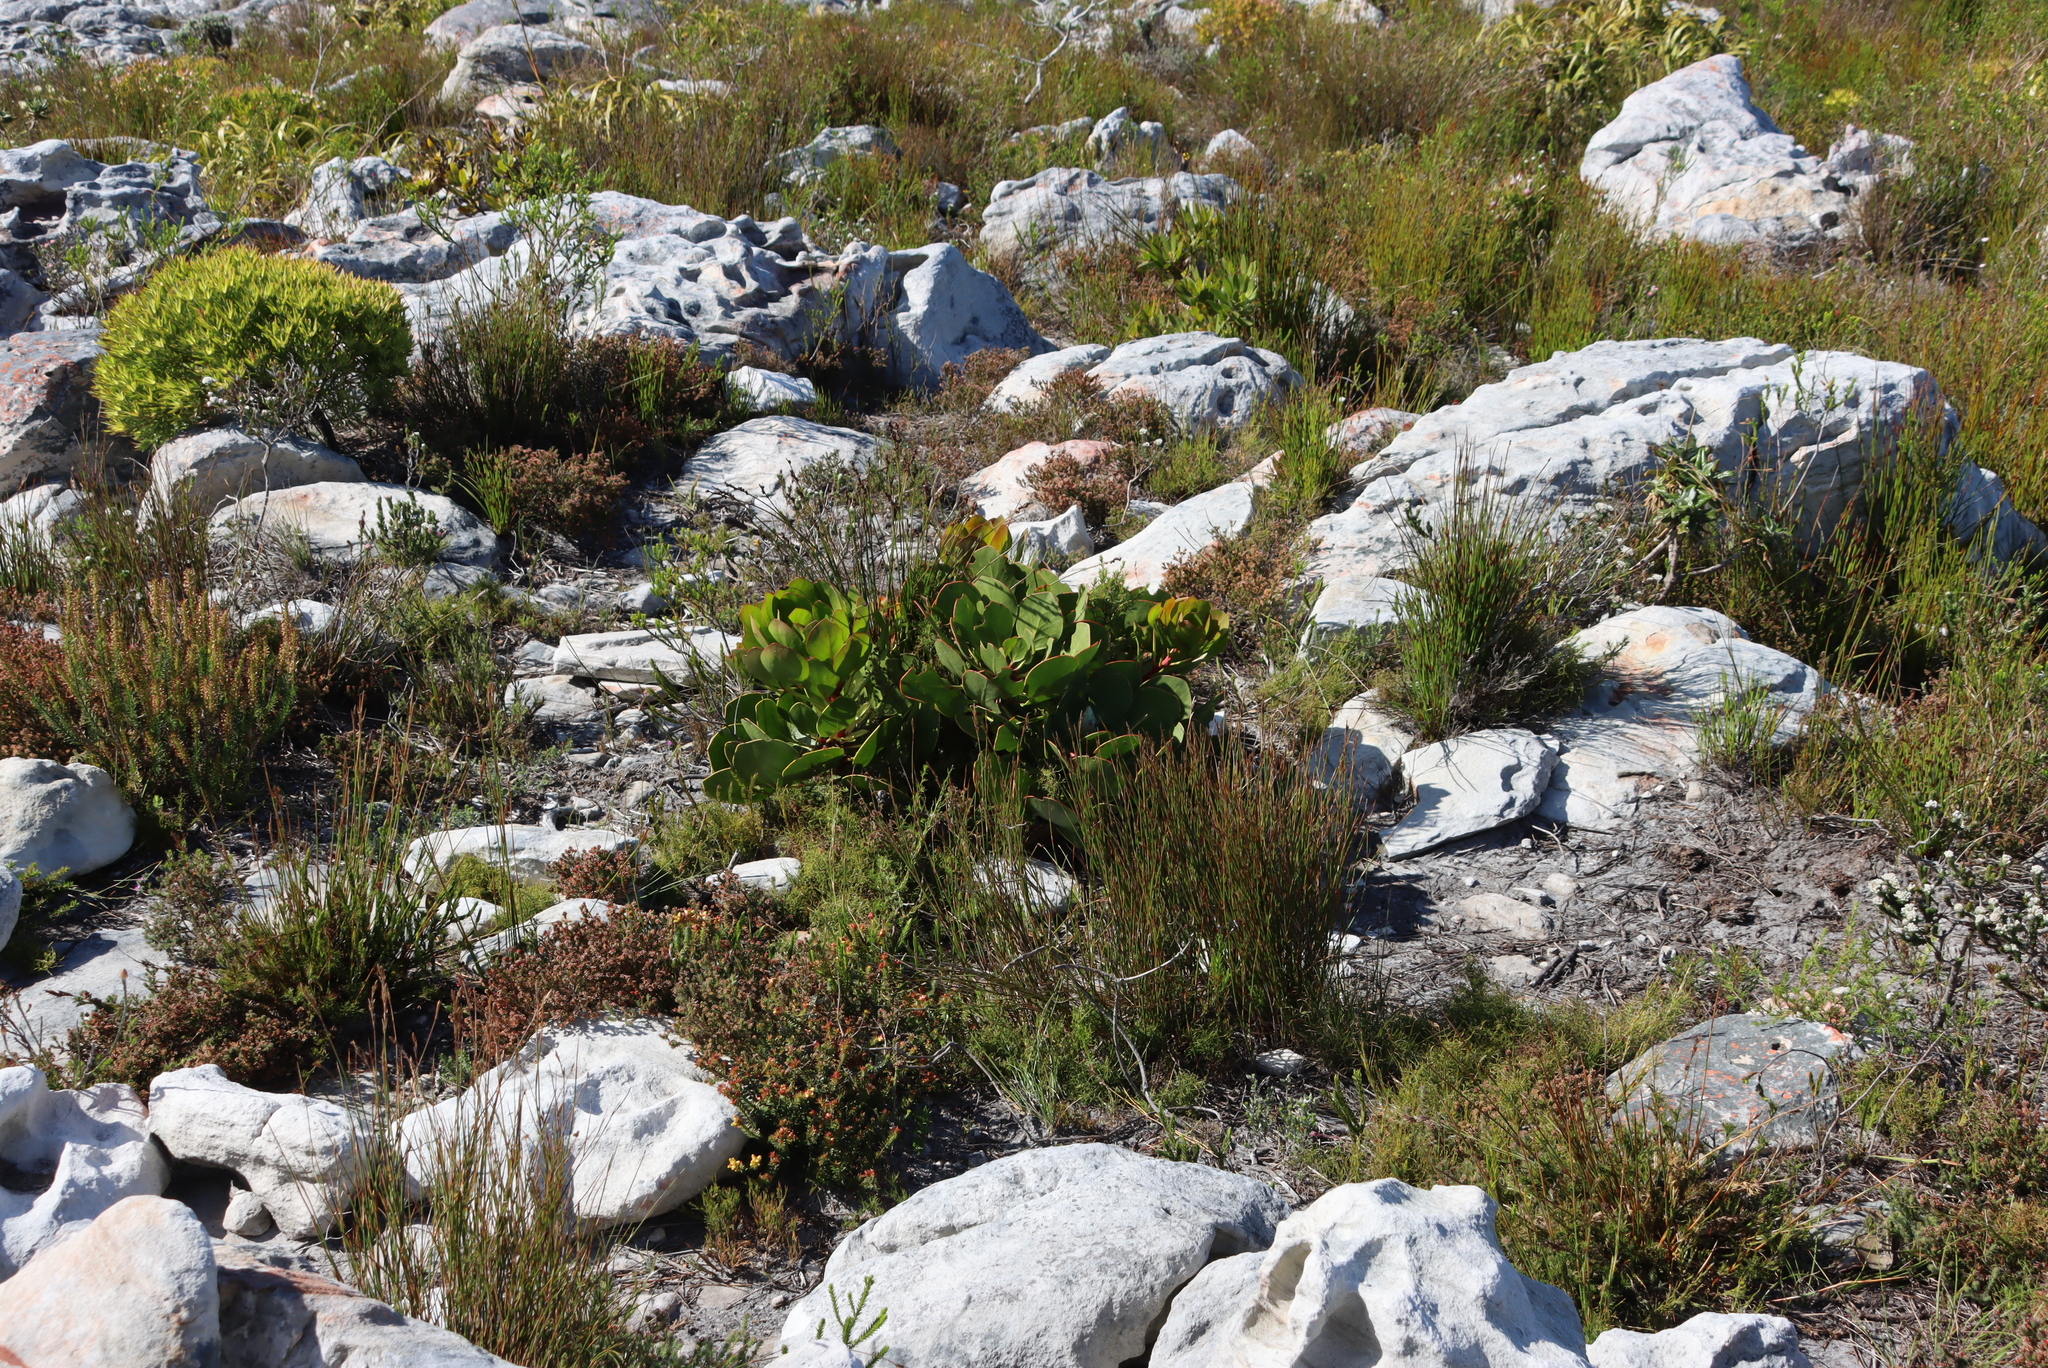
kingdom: Plantae
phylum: Tracheophyta
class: Magnoliopsida
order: Proteales
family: Proteaceae
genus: Protea
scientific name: Protea cynaroides
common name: King protea
